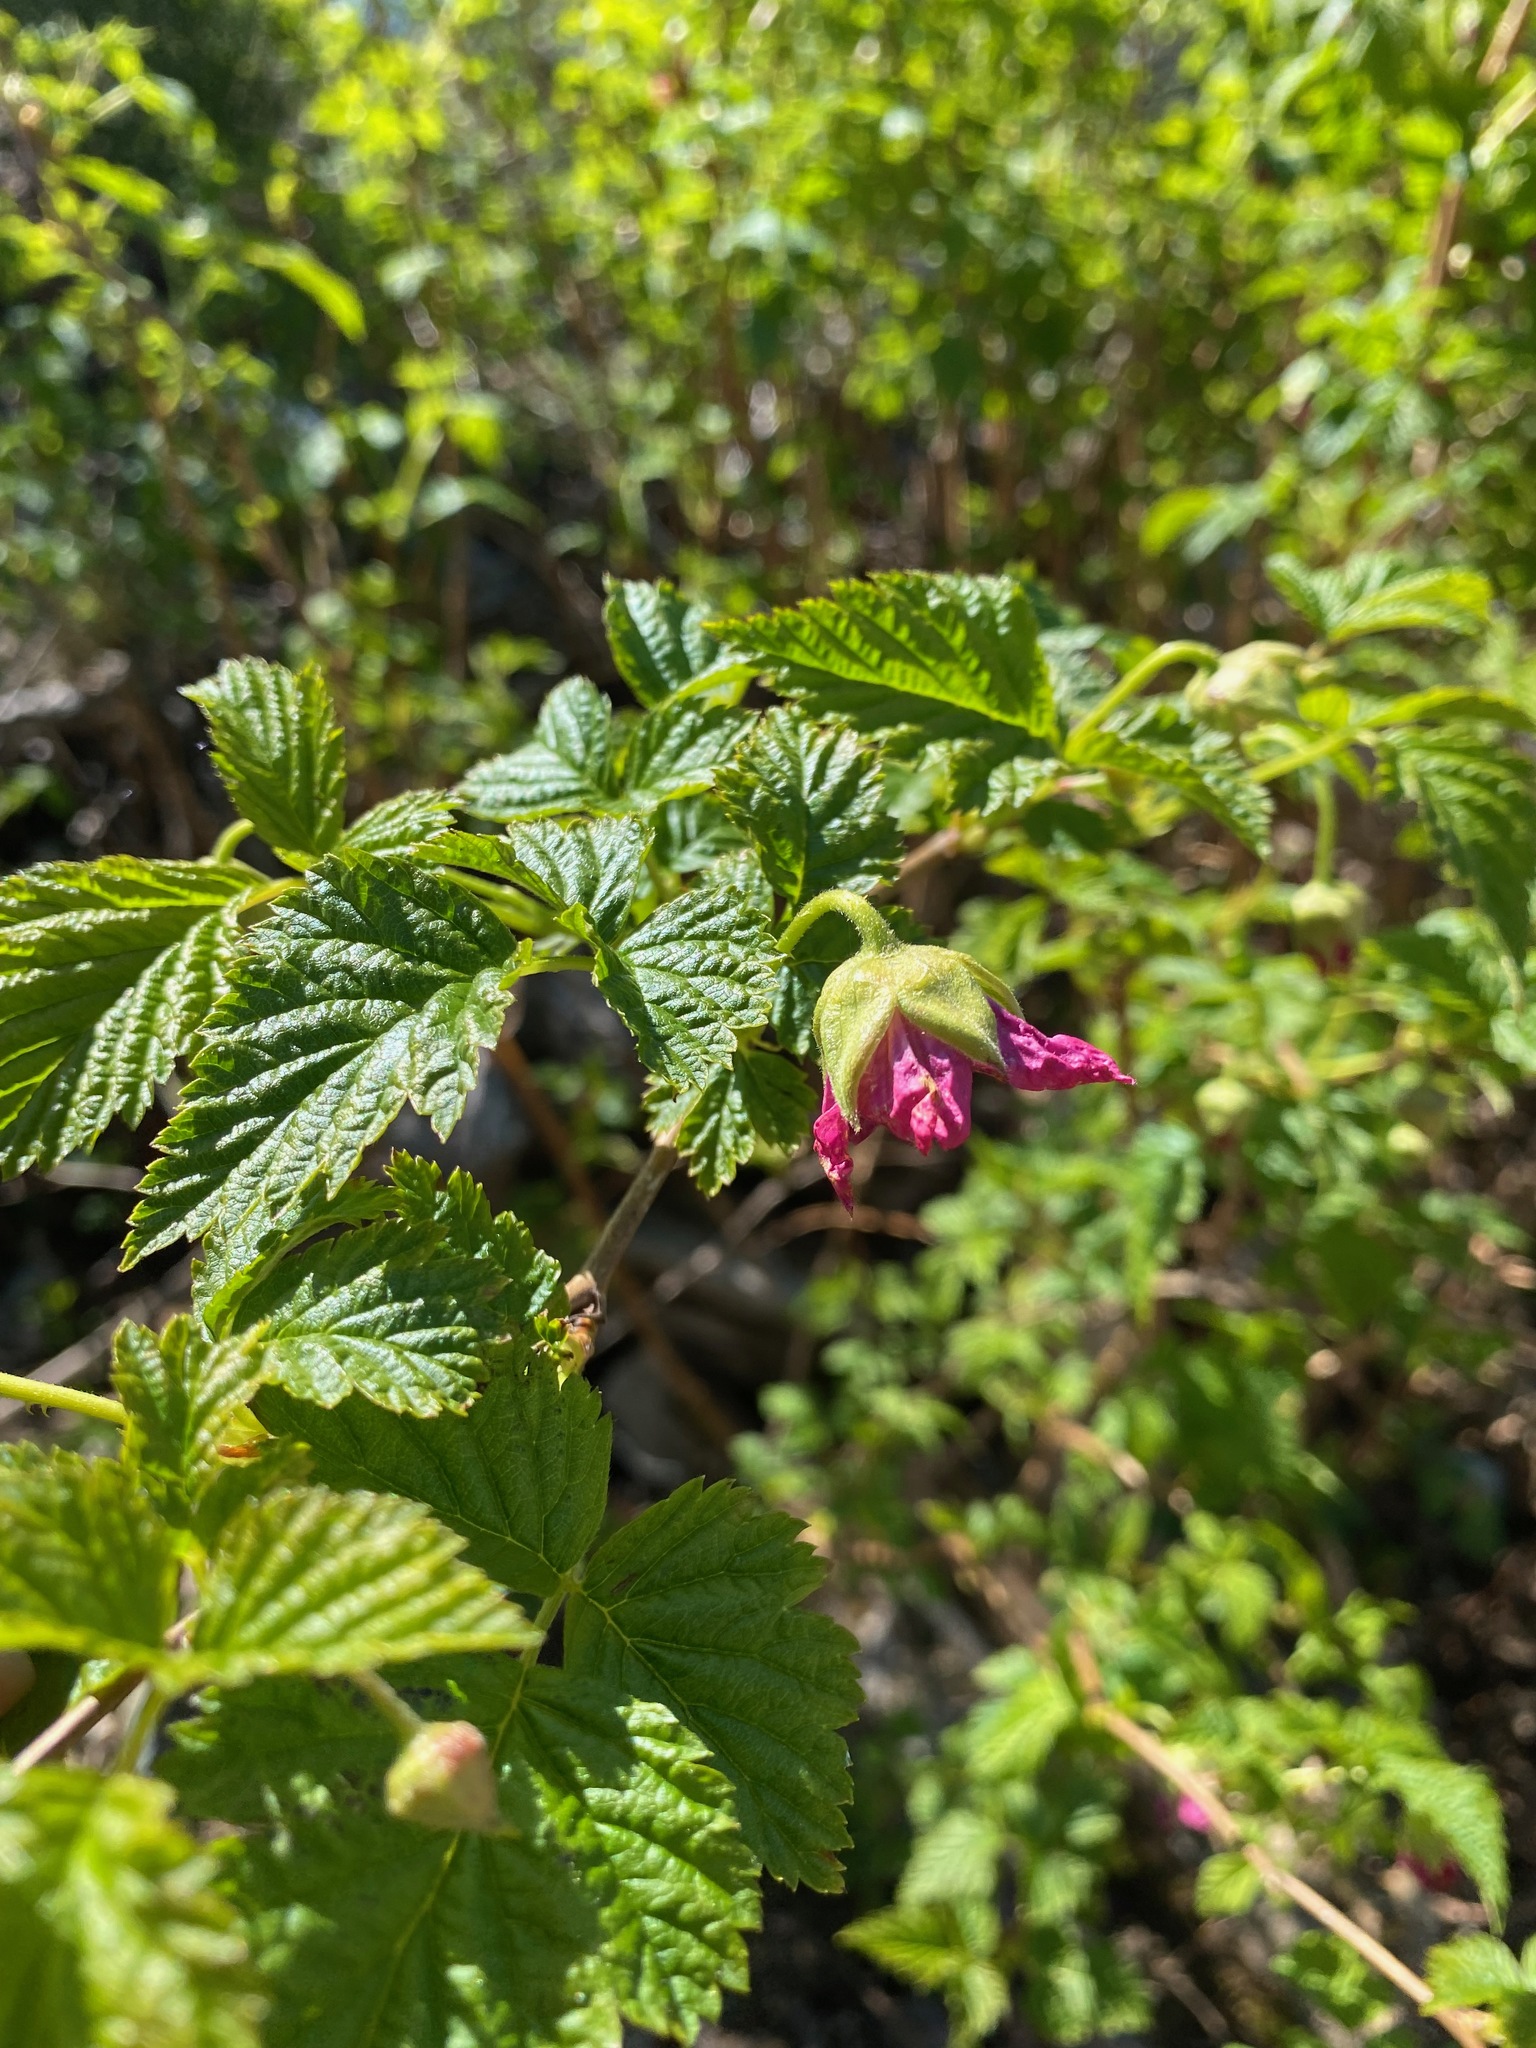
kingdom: Plantae
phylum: Tracheophyta
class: Magnoliopsida
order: Rosales
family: Rosaceae
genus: Rubus
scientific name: Rubus spectabilis
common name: Salmonberry
